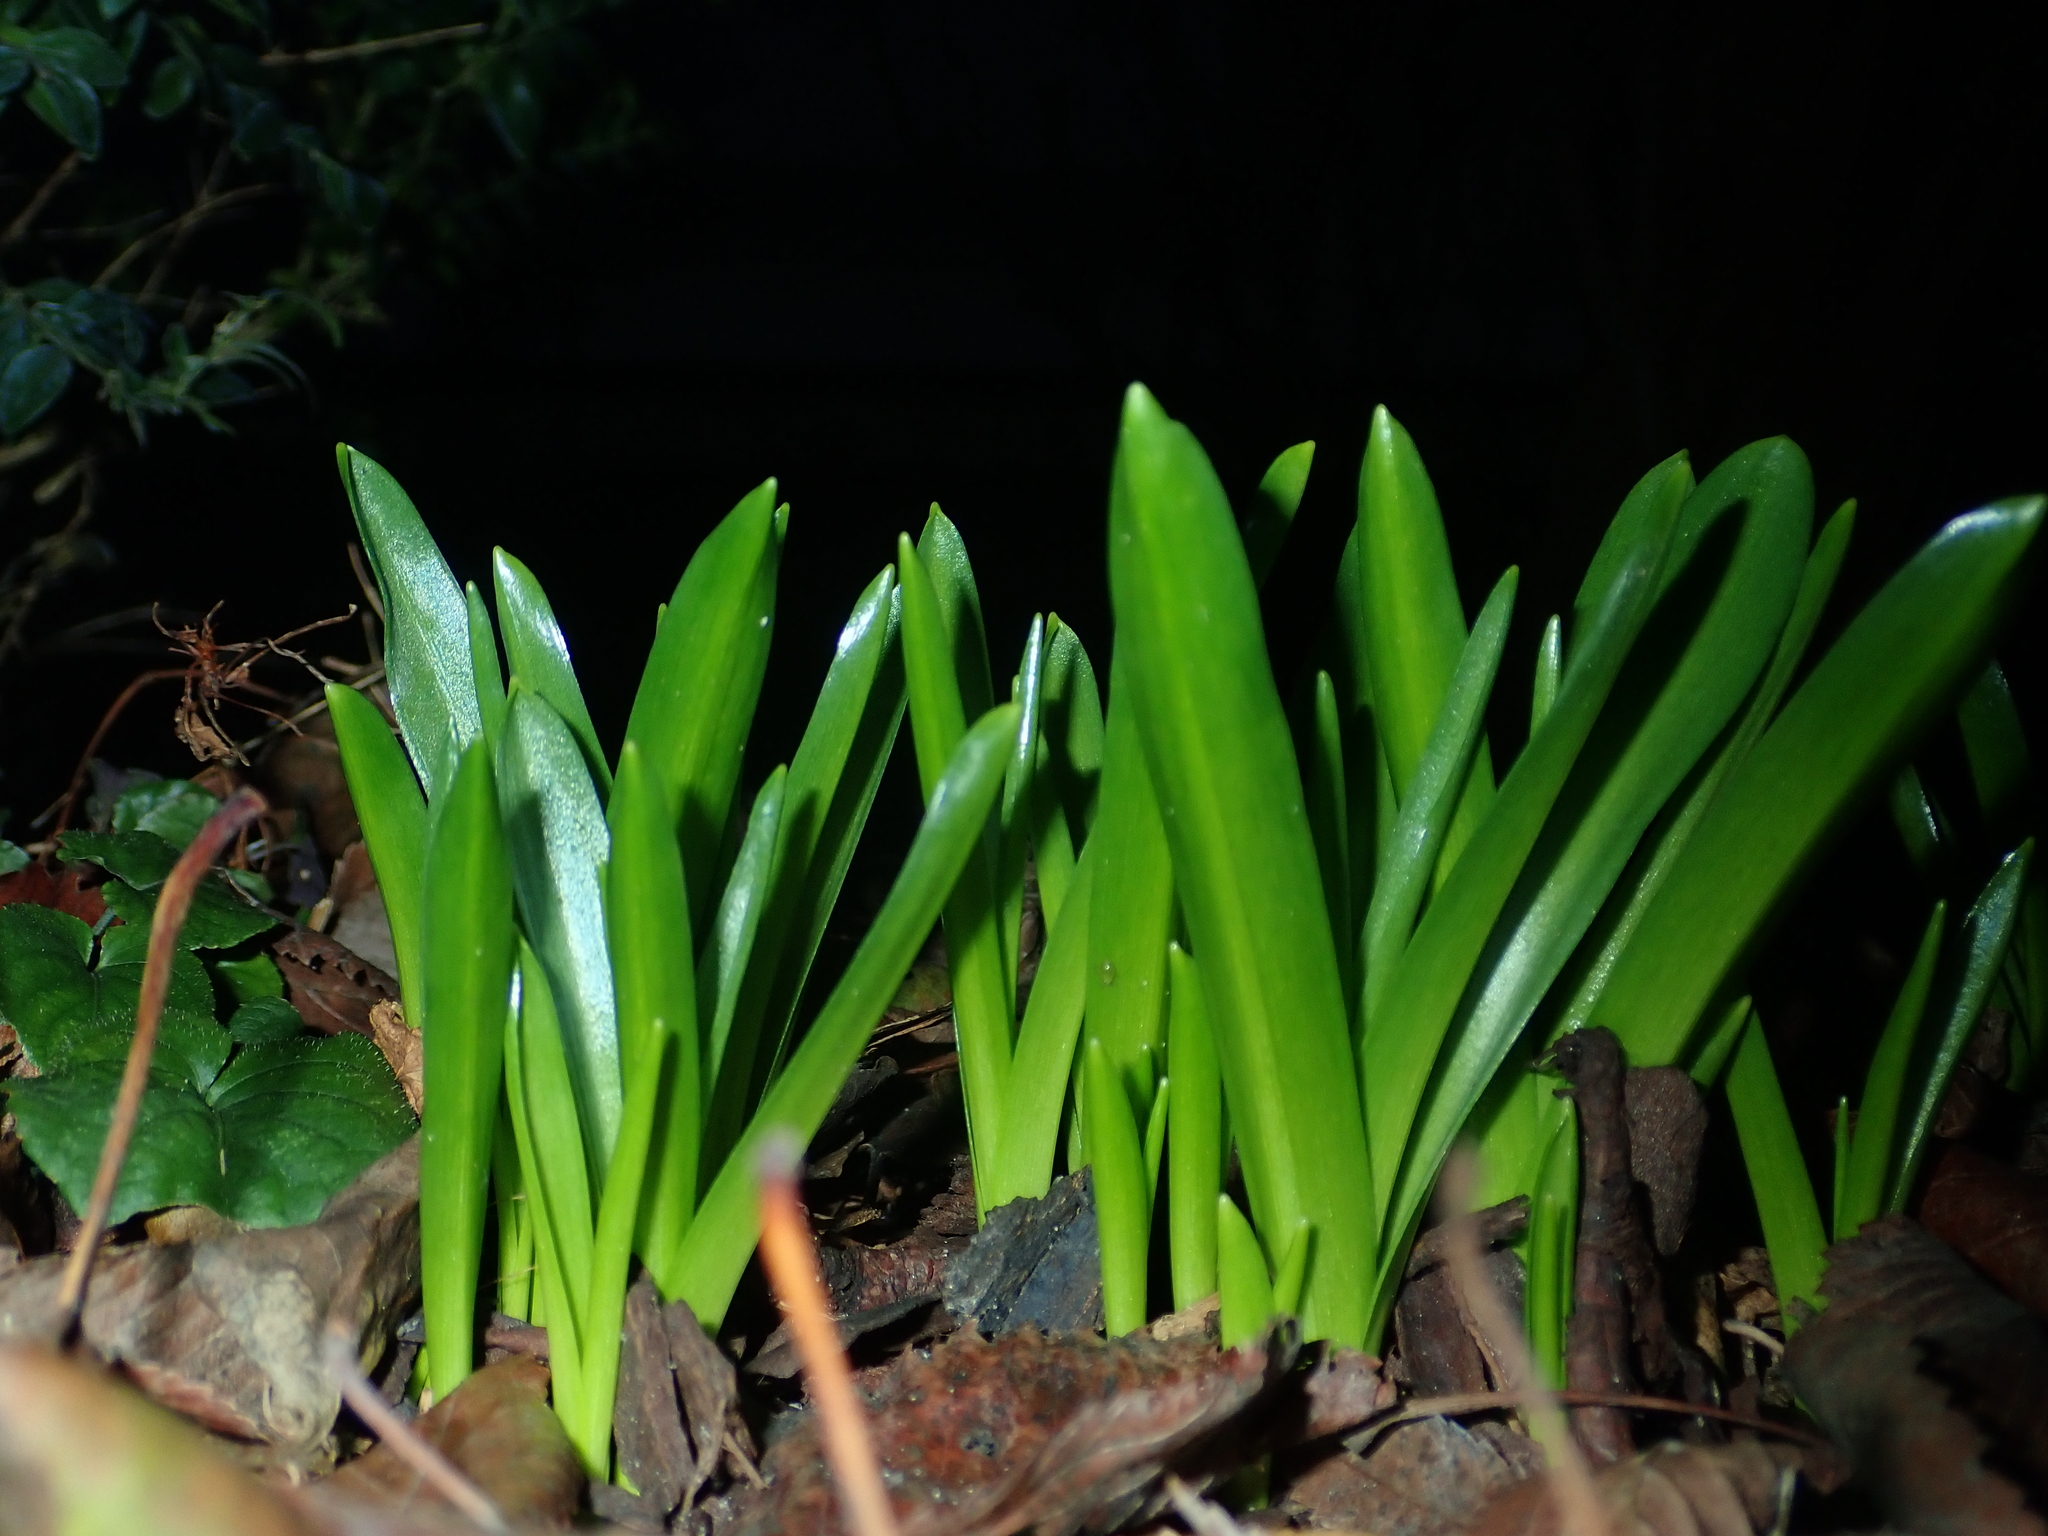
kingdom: Plantae
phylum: Tracheophyta
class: Liliopsida
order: Asparagales
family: Amaryllidaceae
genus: Galanthus
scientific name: Galanthus nivalis
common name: Snowdrop
